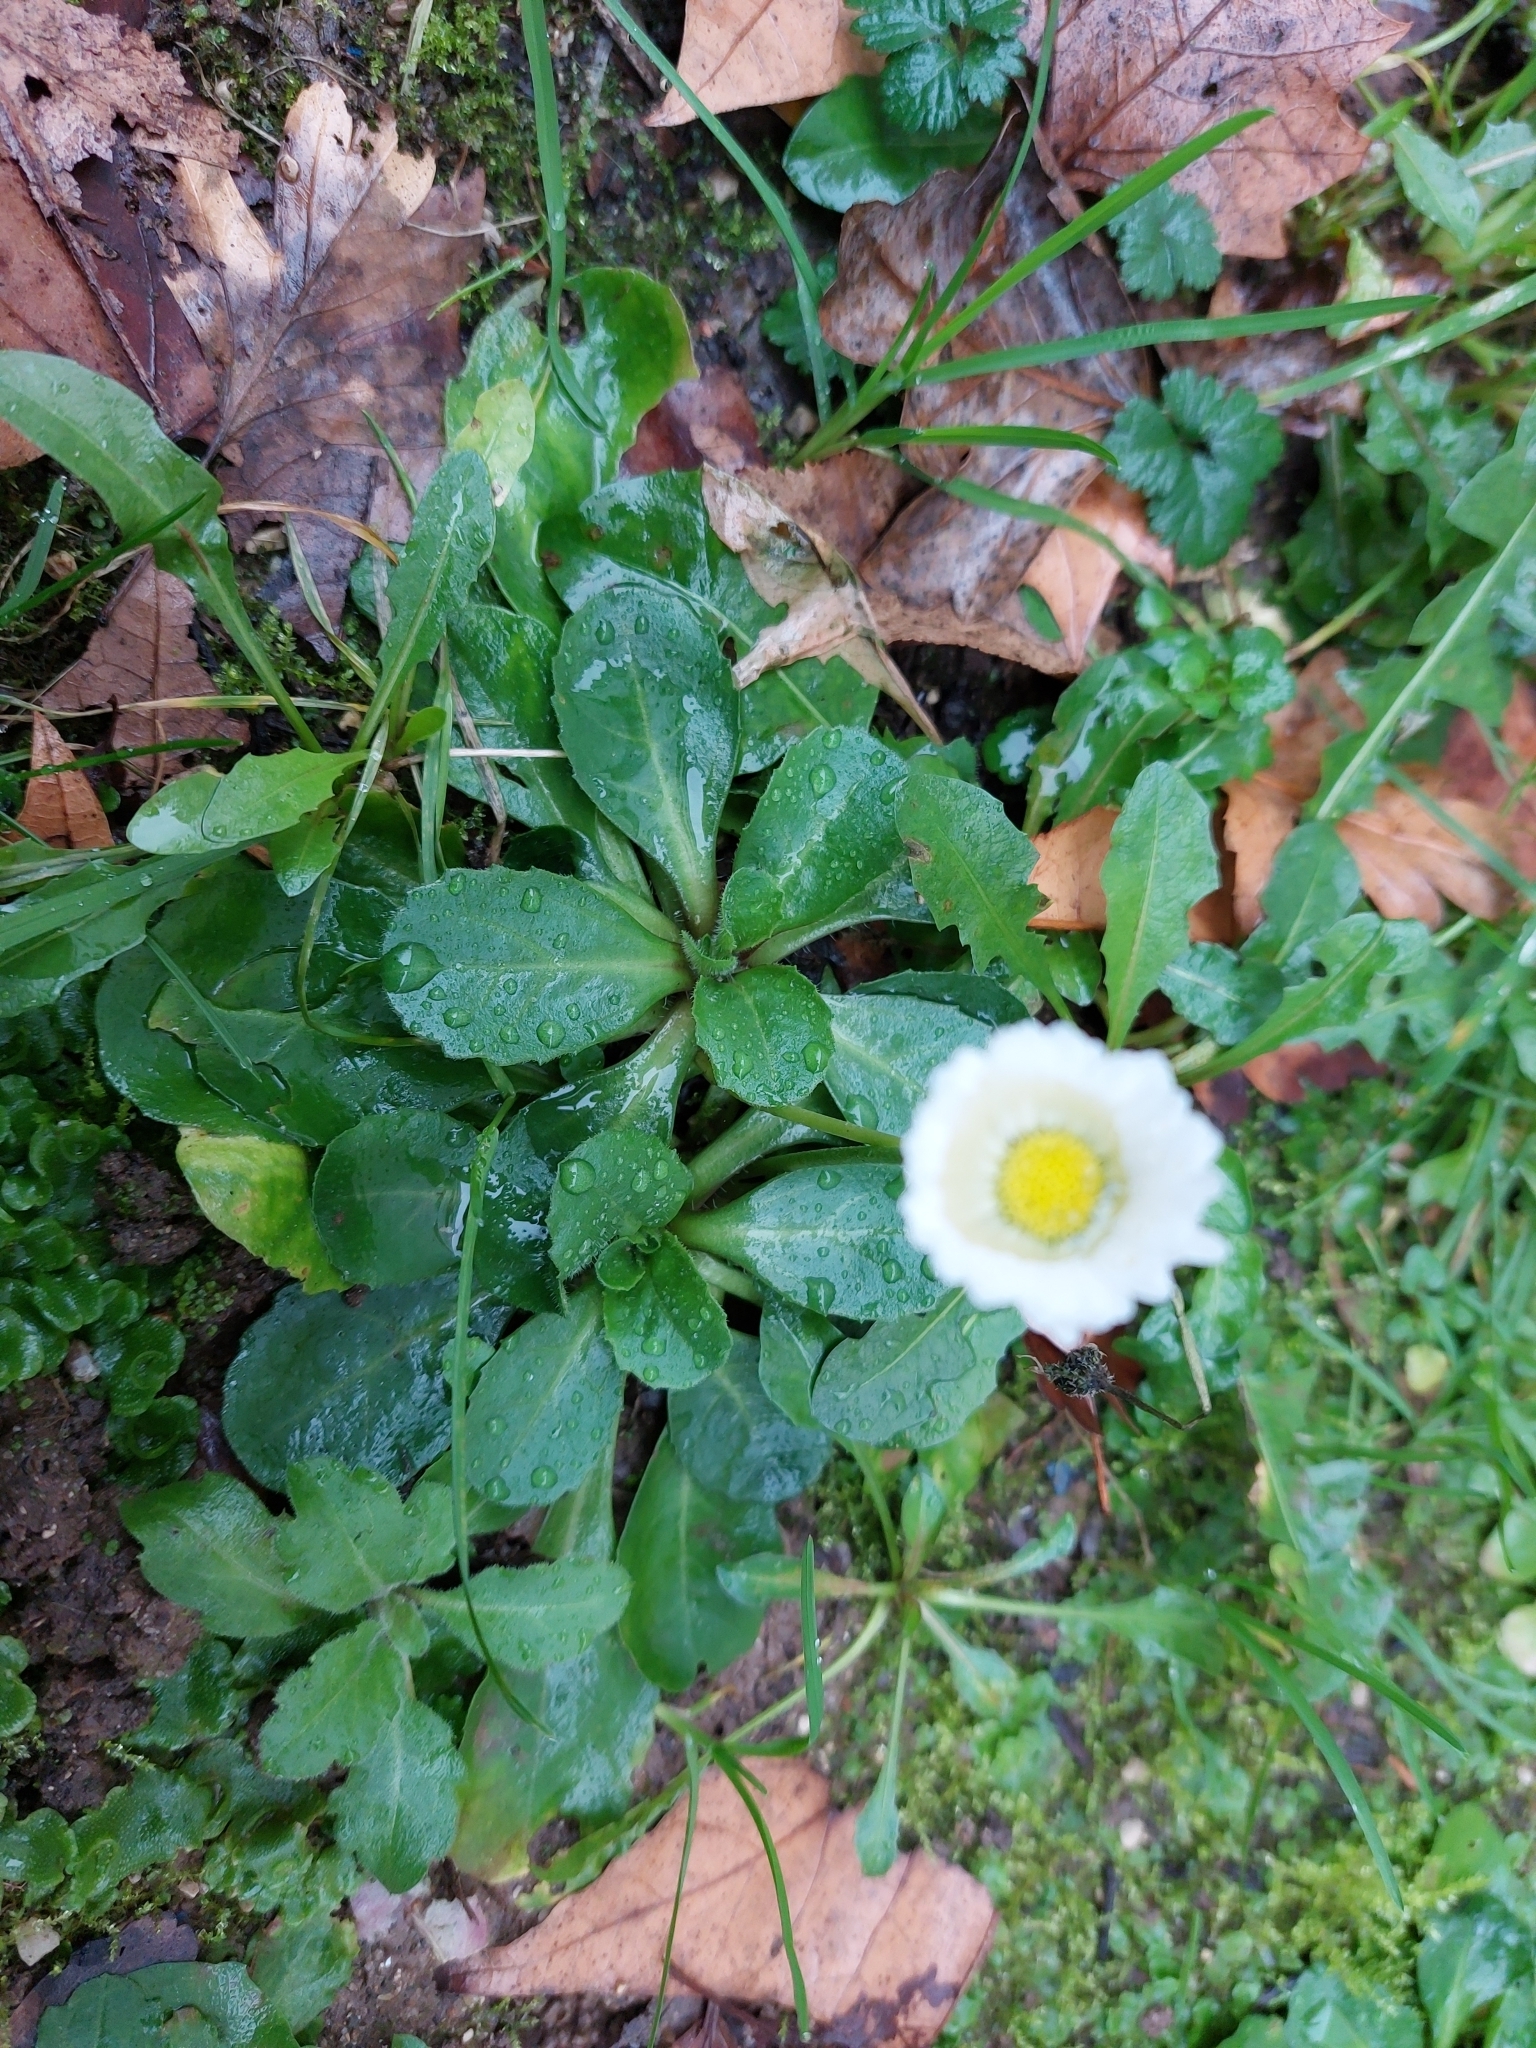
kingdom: Plantae
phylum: Tracheophyta
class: Magnoliopsida
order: Asterales
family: Asteraceae
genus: Bellis
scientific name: Bellis perennis
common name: Lawndaisy
